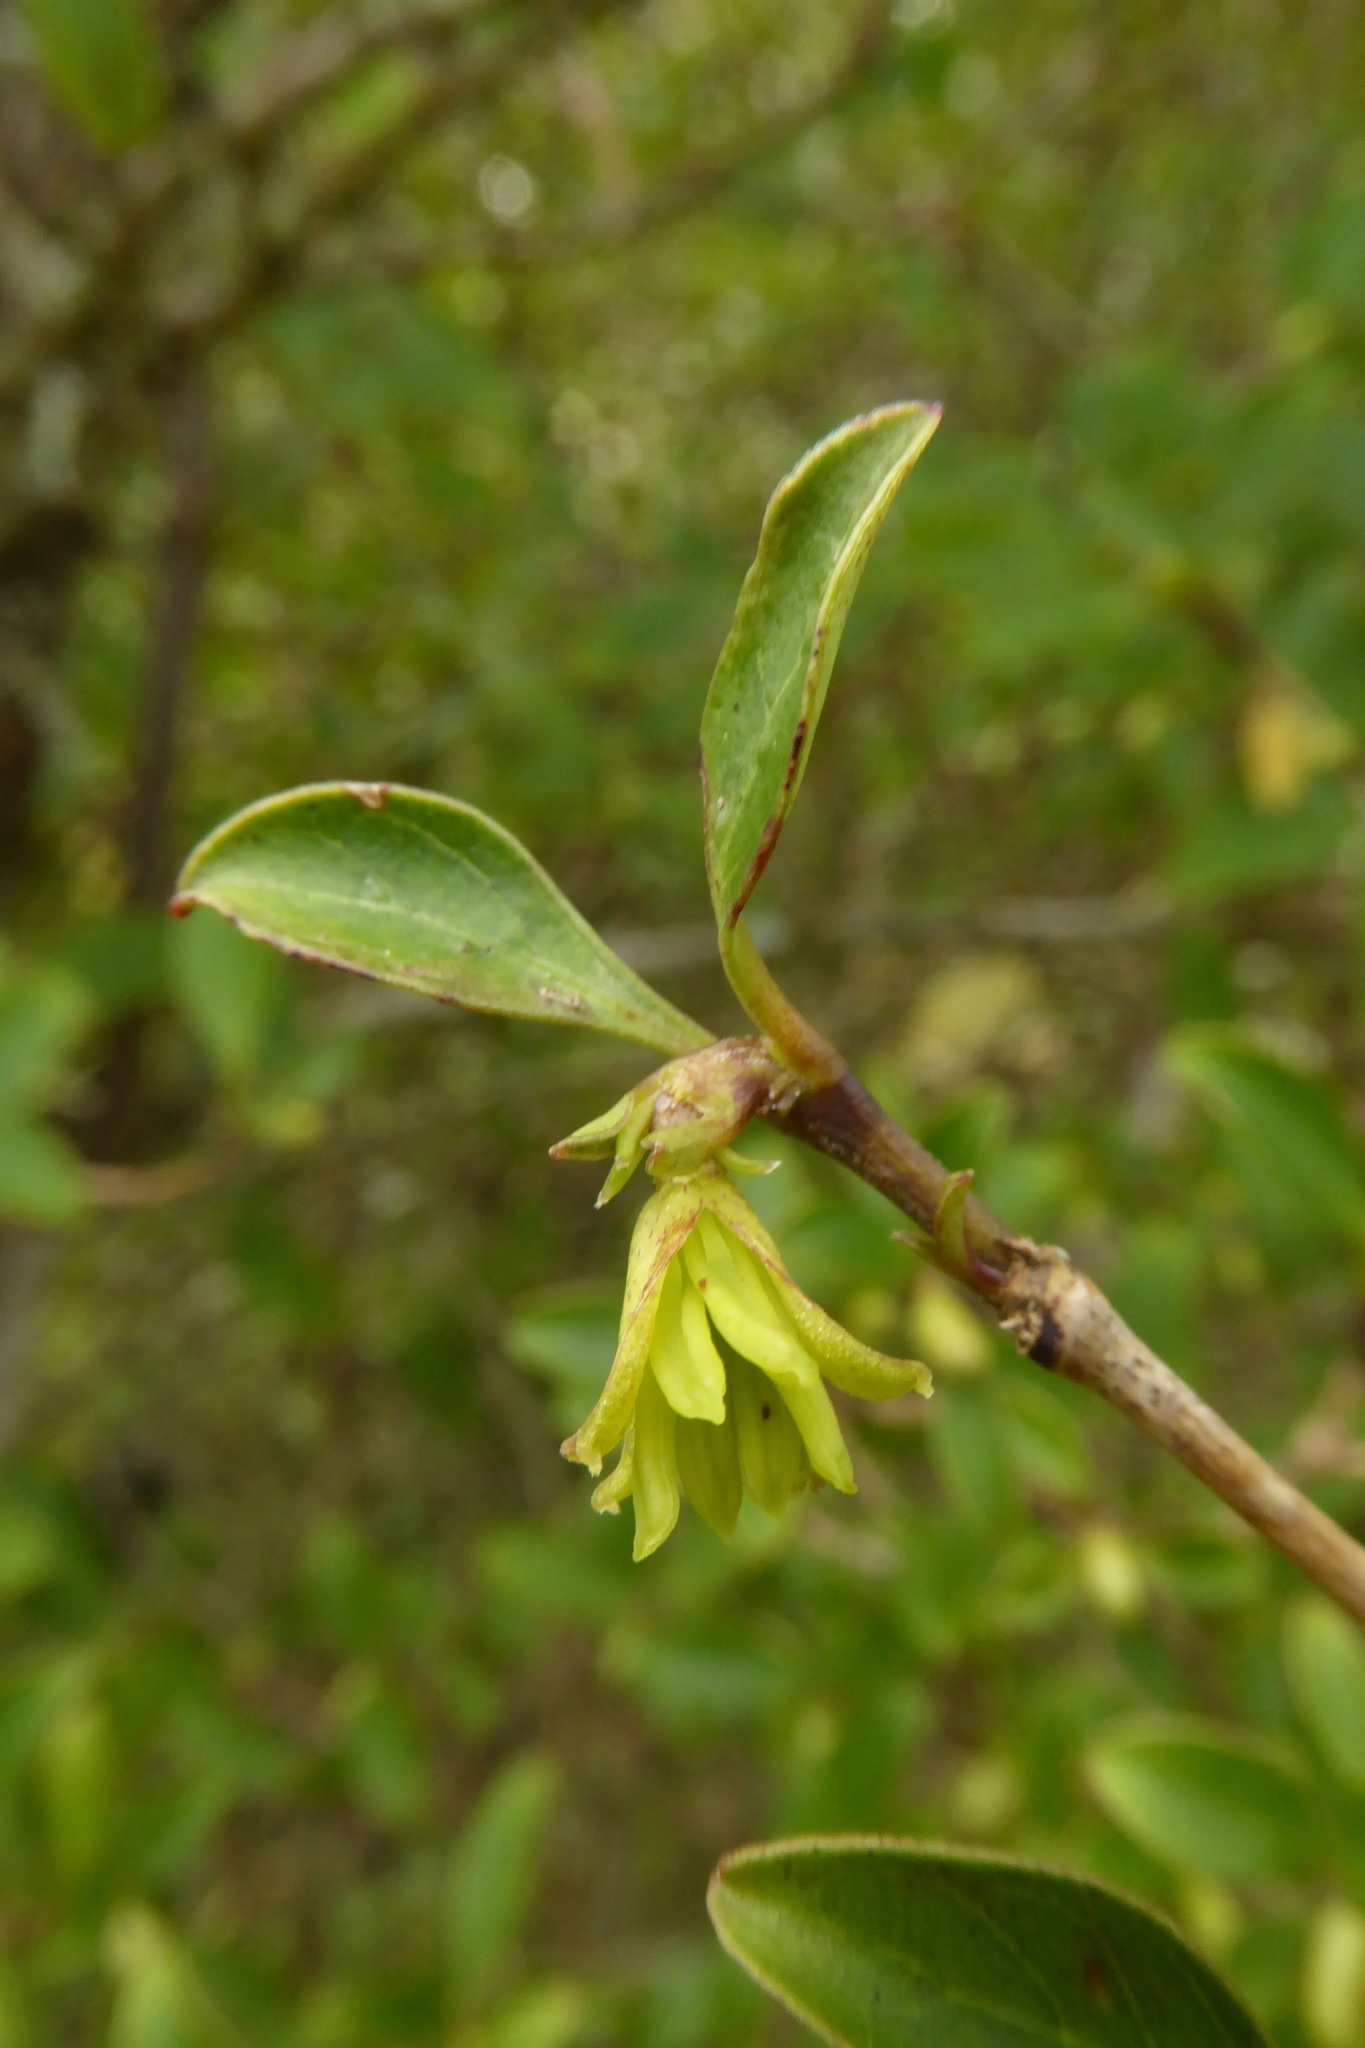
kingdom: Plantae
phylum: Tracheophyta
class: Magnoliopsida
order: Gentianales
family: Rubiaceae
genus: Coprosma
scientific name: Coprosma foetidissima
